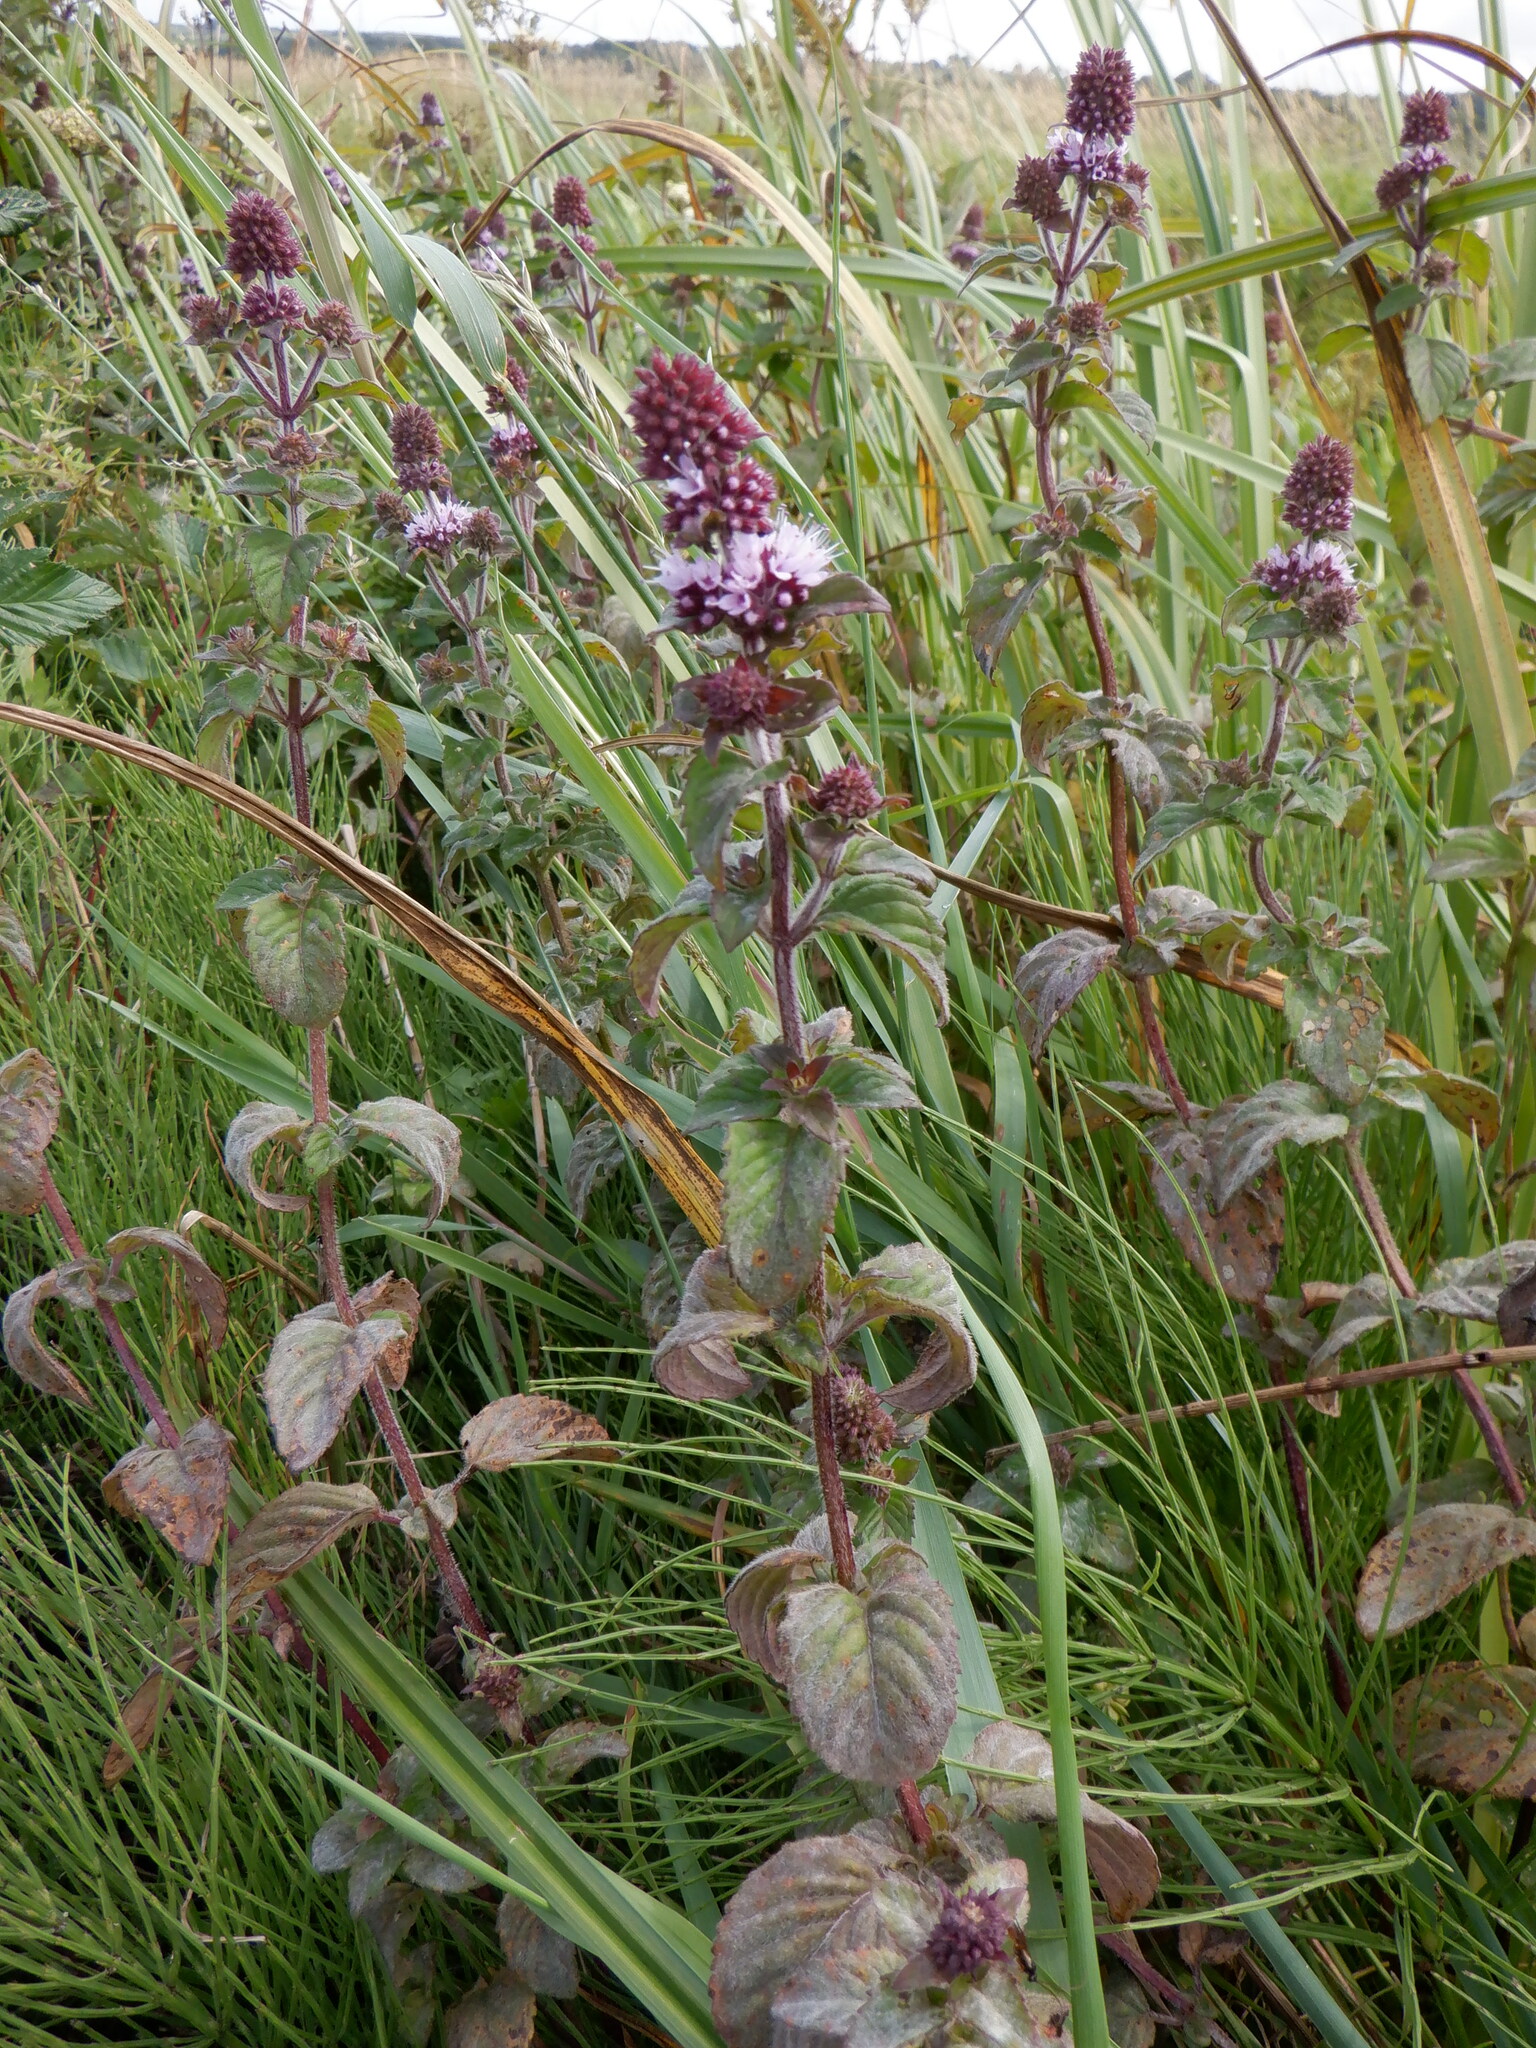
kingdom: Plantae
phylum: Tracheophyta
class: Magnoliopsida
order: Lamiales
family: Lamiaceae
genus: Mentha
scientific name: Mentha aquatica
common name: Water mint
